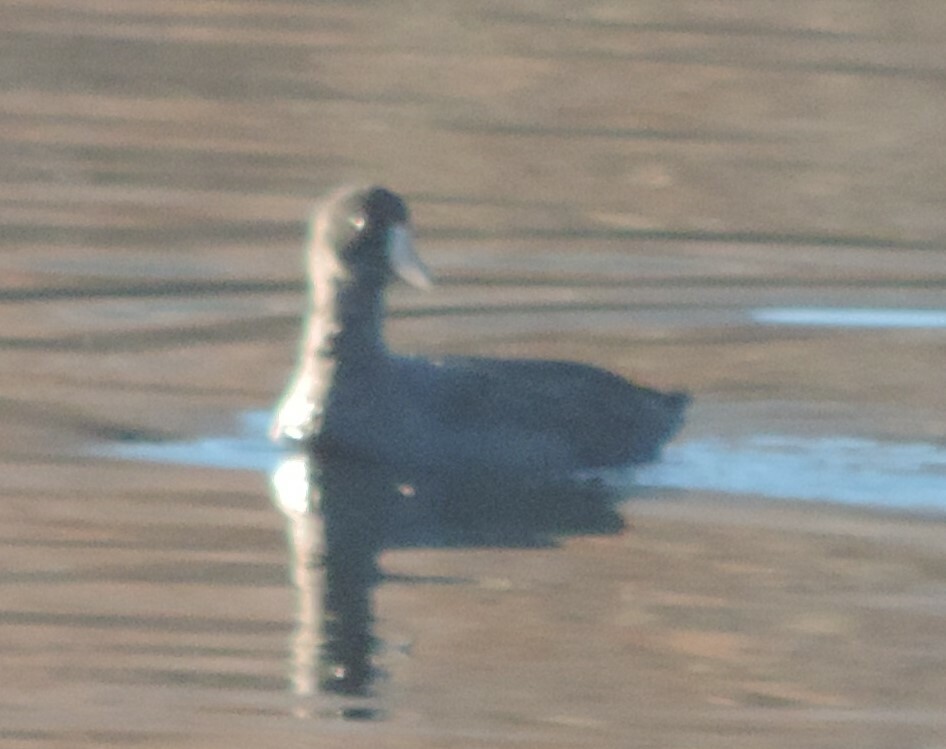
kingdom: Animalia
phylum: Chordata
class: Aves
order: Gruiformes
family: Rallidae
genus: Fulica
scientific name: Fulica americana
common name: American coot
